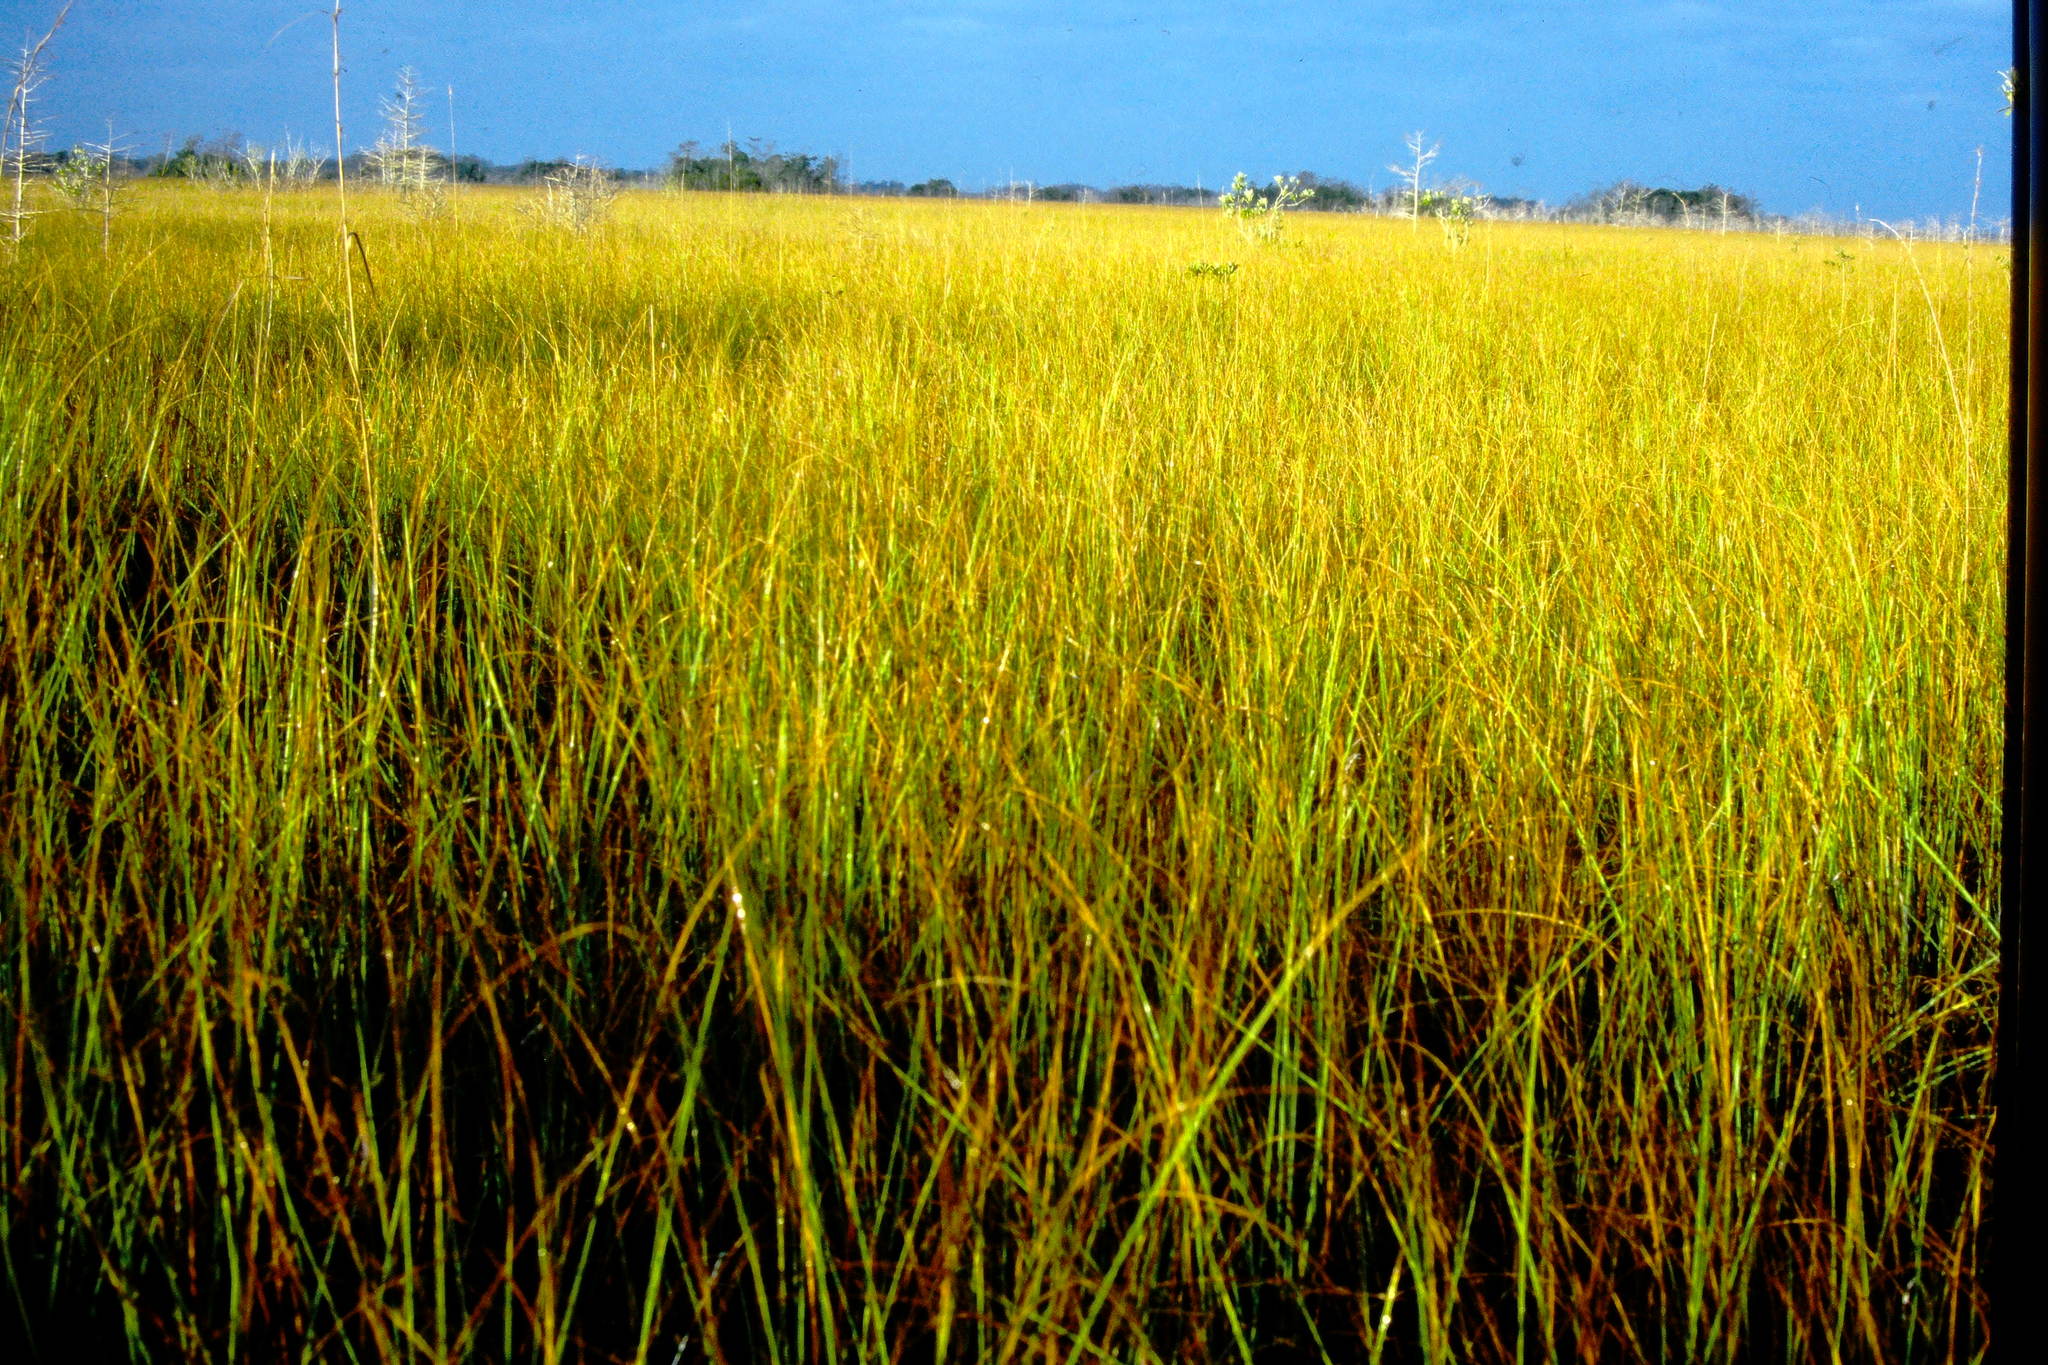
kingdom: Plantae
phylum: Tracheophyta
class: Liliopsida
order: Poales
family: Cyperaceae
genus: Cladium
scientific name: Cladium mariscus
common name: Great fen-sedge
